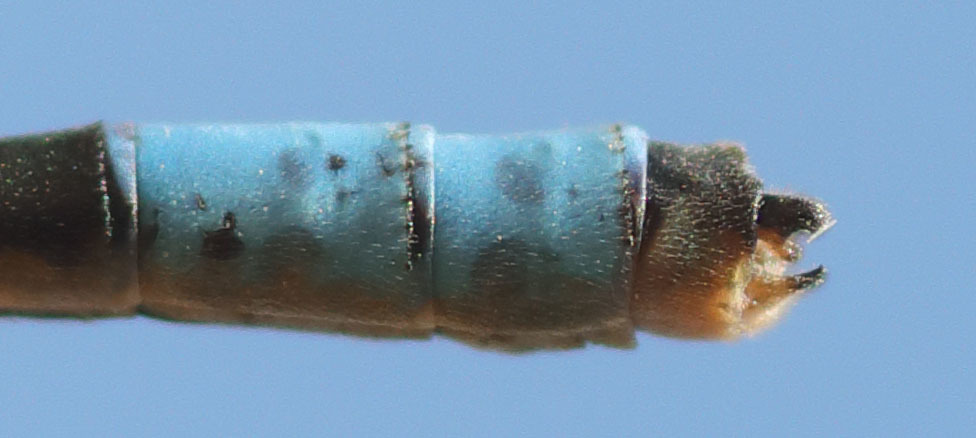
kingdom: Animalia
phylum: Arthropoda
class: Insecta
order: Odonata
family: Coenagrionidae
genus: Enallagma
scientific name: Enallagma praevarum
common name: Arroyo bluet
